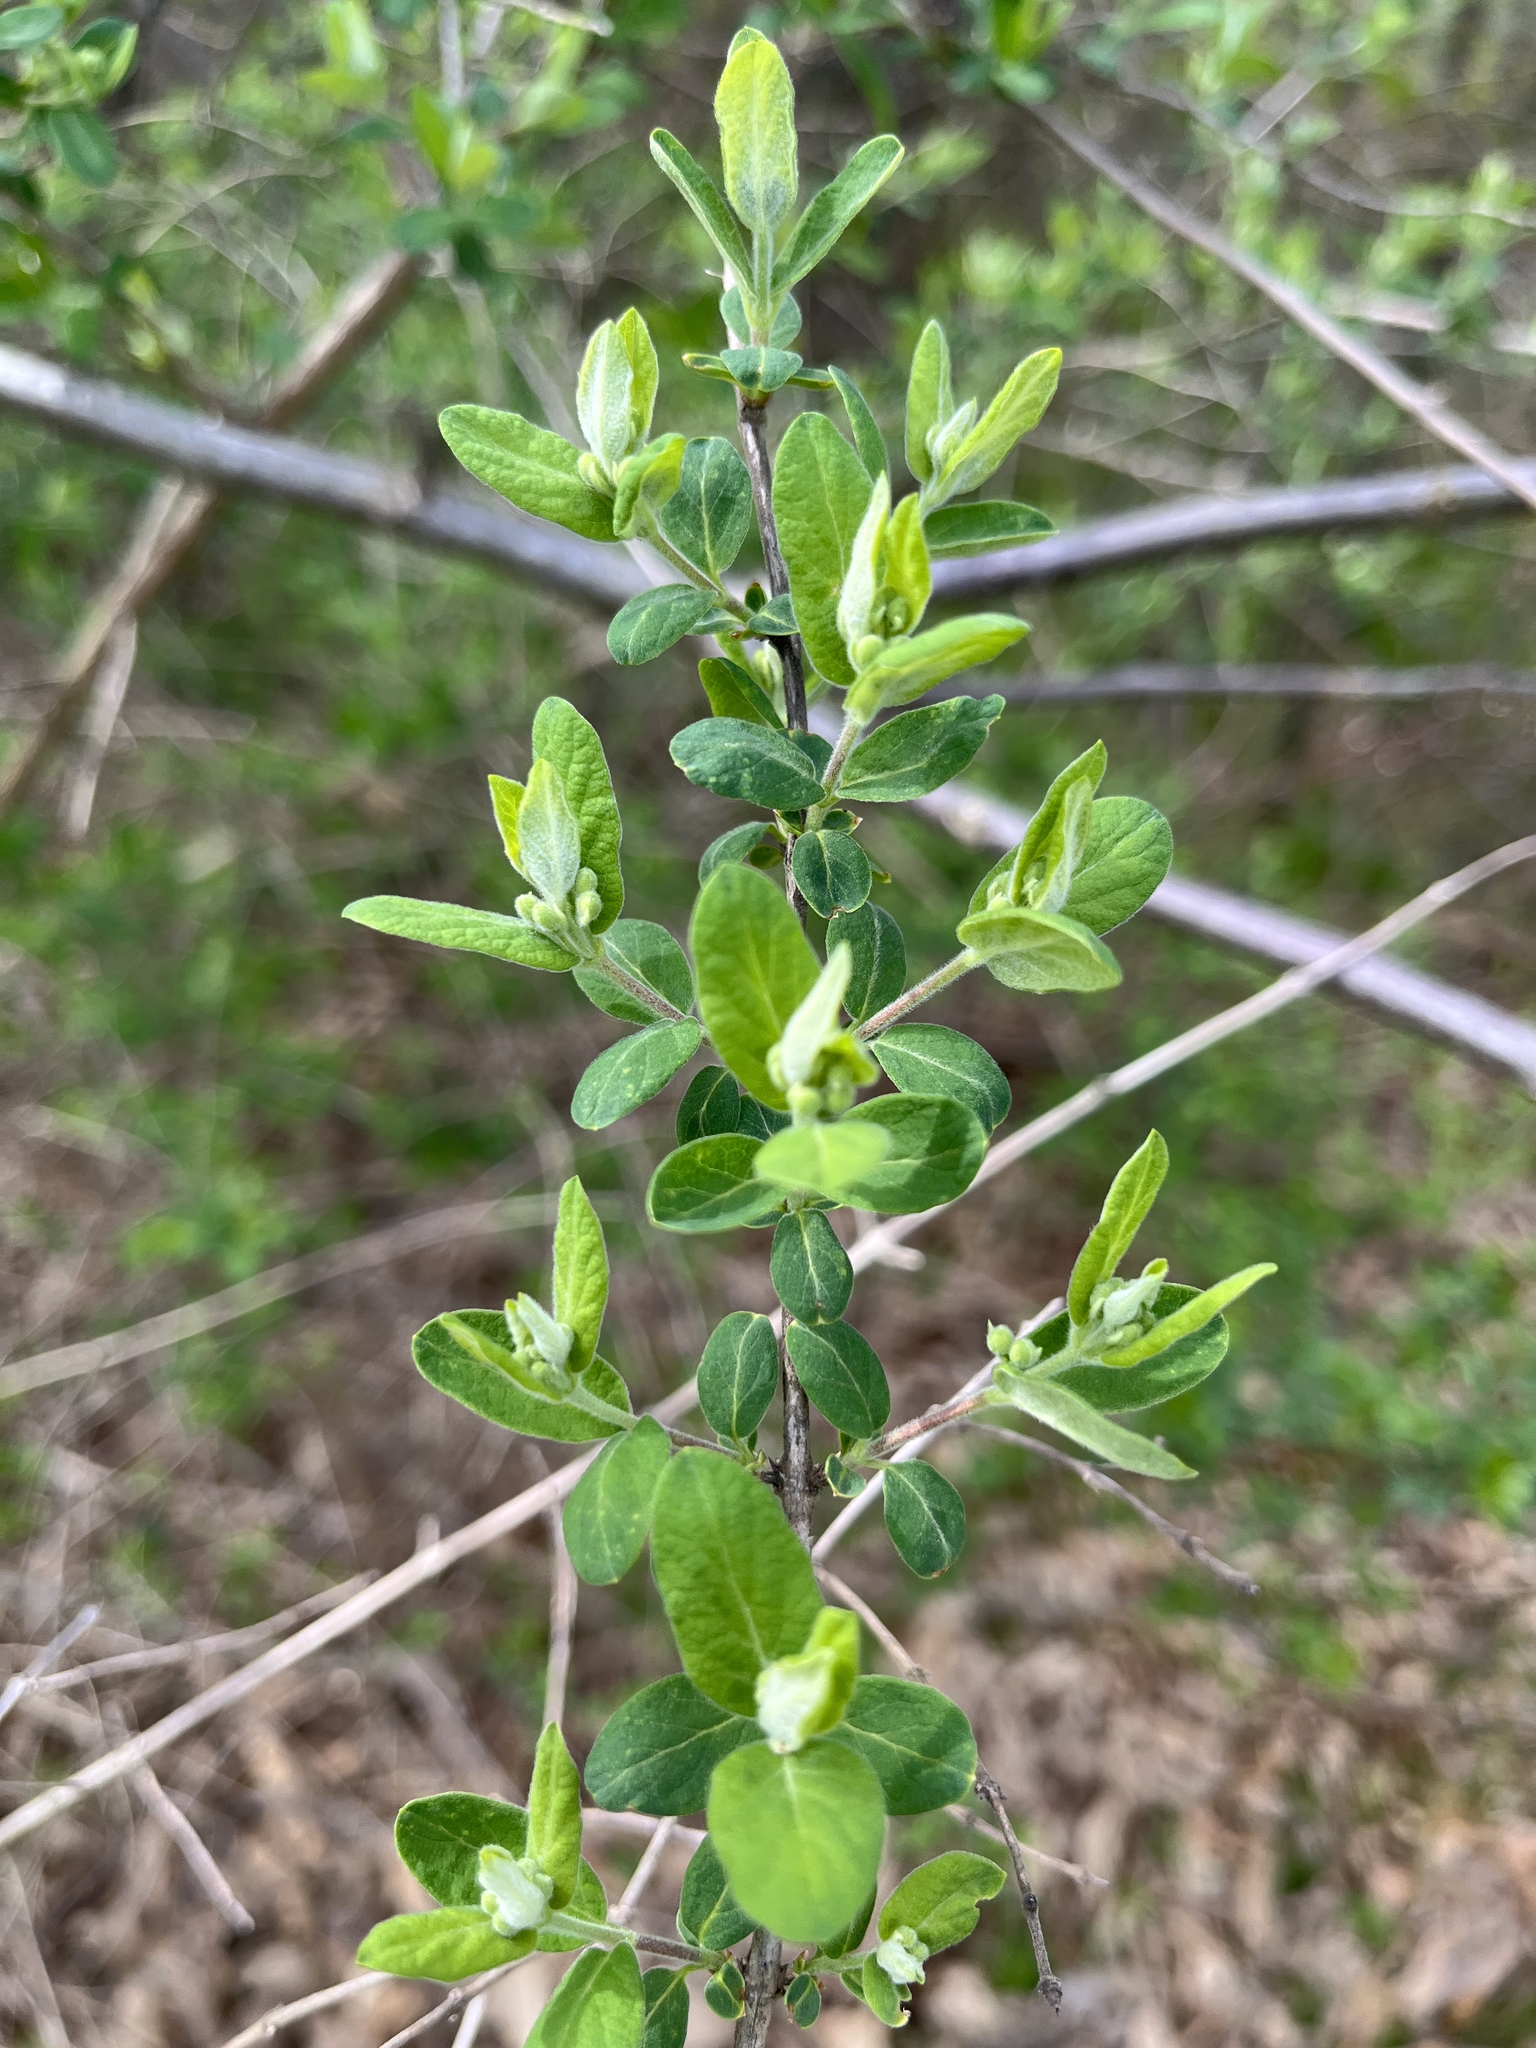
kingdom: Plantae
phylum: Tracheophyta
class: Magnoliopsida
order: Dipsacales
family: Caprifoliaceae
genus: Lonicera
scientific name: Lonicera morrowii
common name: Morrow's honeysuckle
